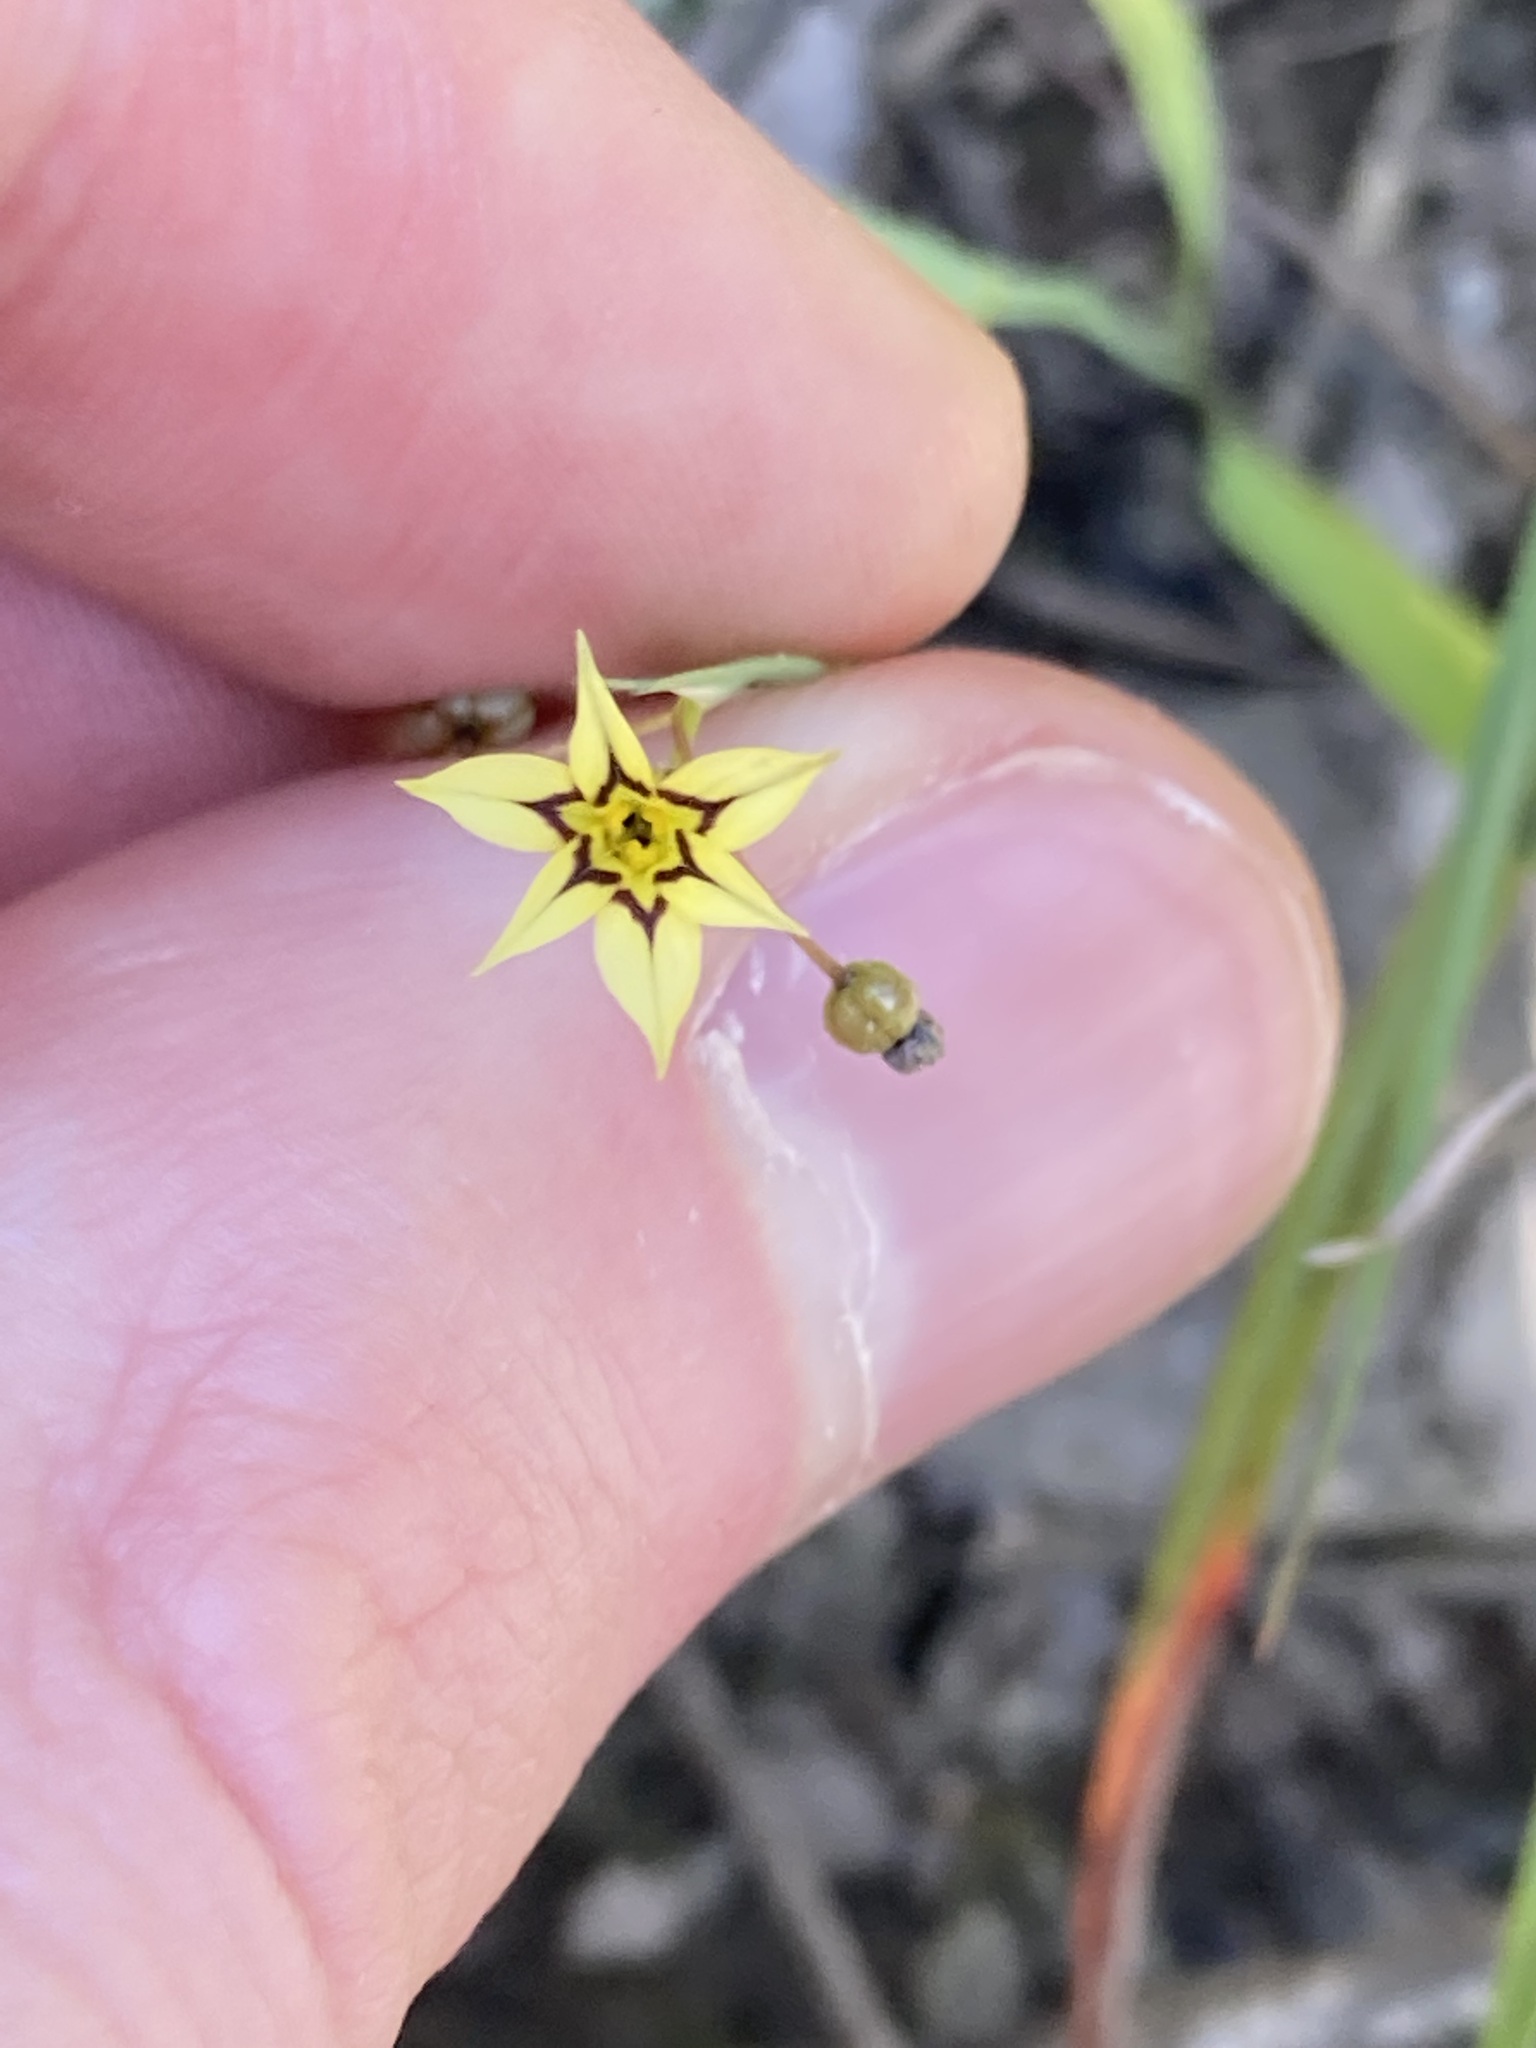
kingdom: Plantae
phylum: Tracheophyta
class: Liliopsida
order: Asparagales
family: Iridaceae
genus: Sisyrinchium
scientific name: Sisyrinchium micranthum
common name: Bermuda pigroot
